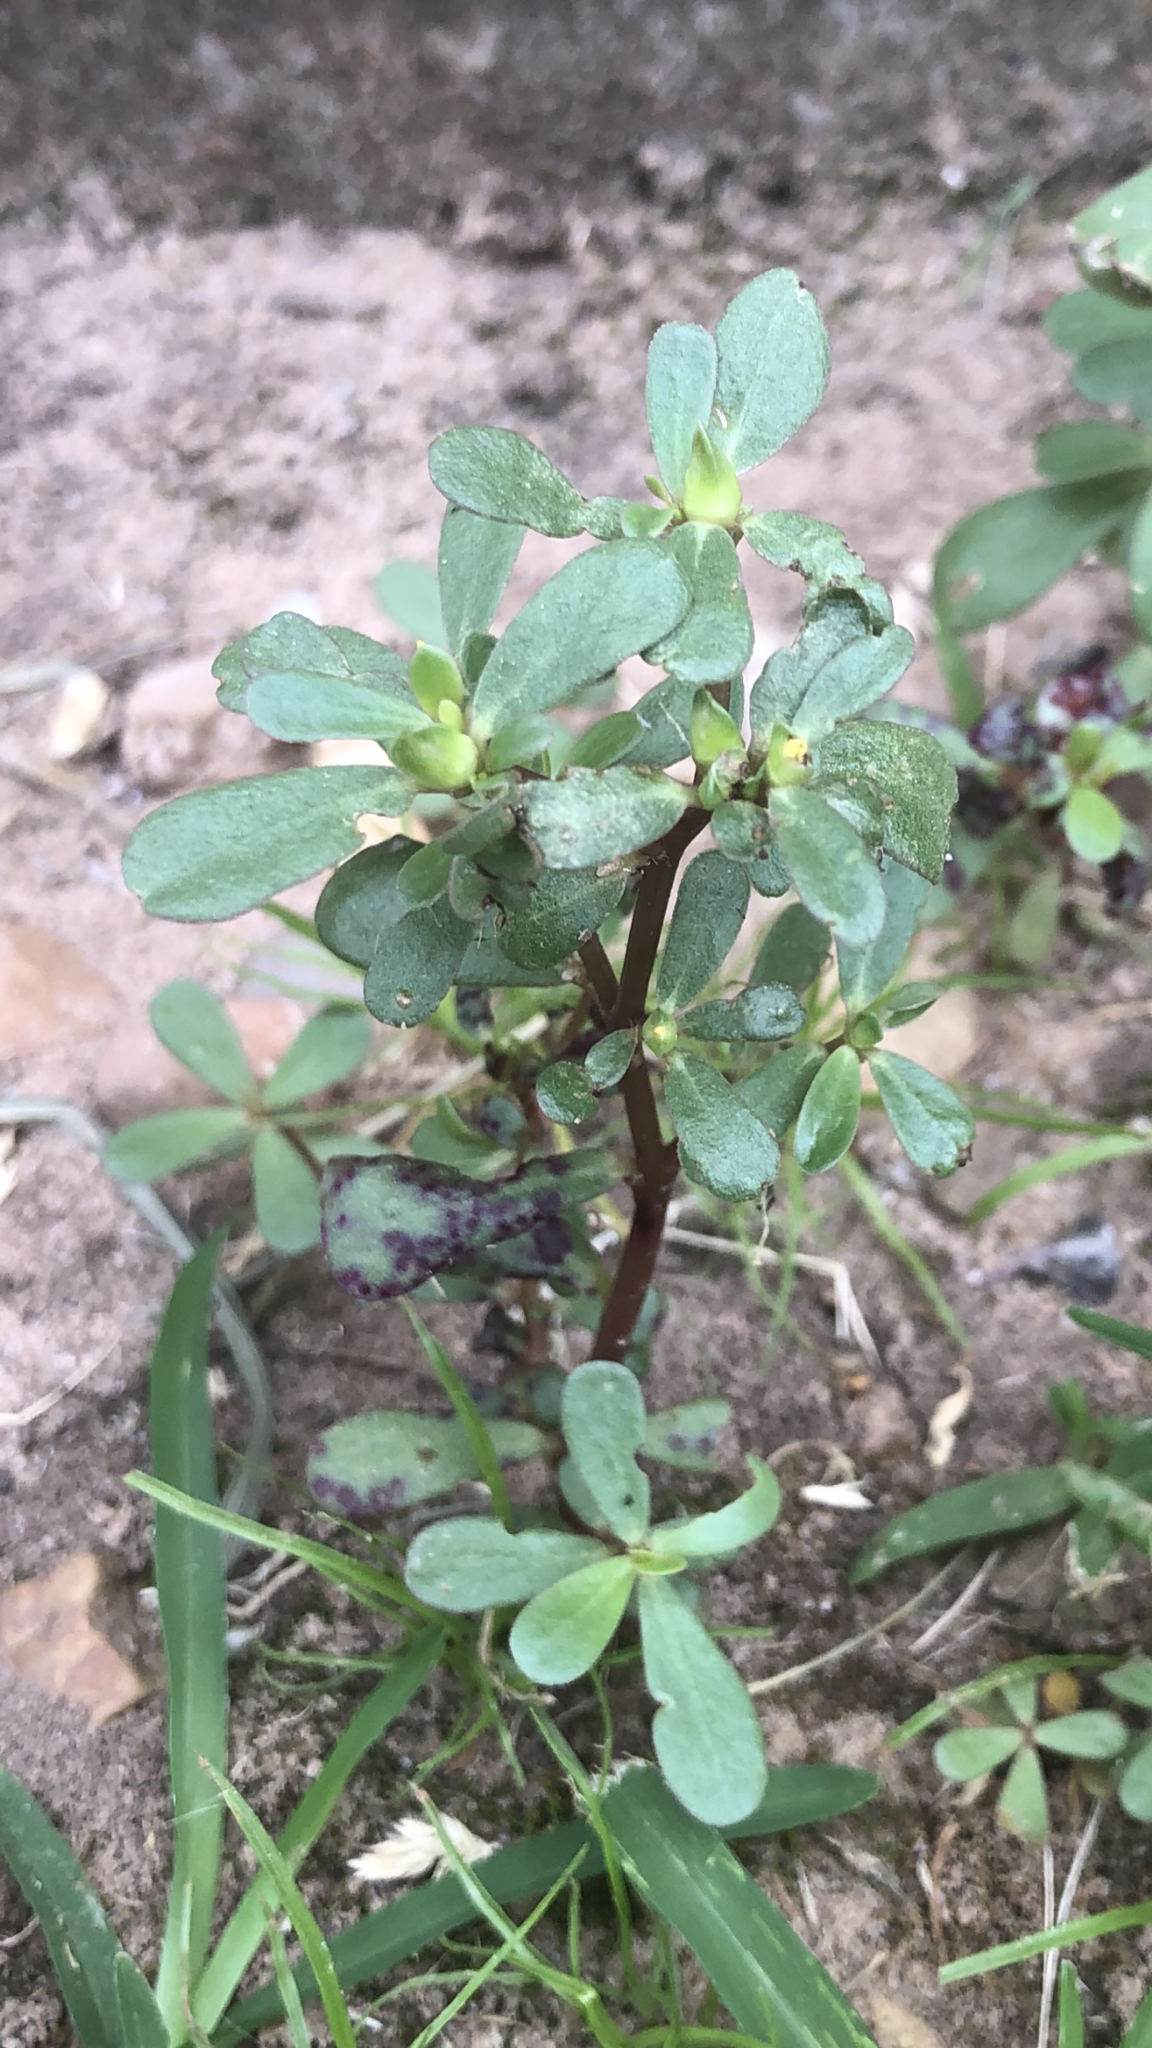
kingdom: Plantae
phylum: Tracheophyta
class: Magnoliopsida
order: Caryophyllales
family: Portulacaceae
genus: Portulaca
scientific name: Portulaca oleracea
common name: Common purslane
